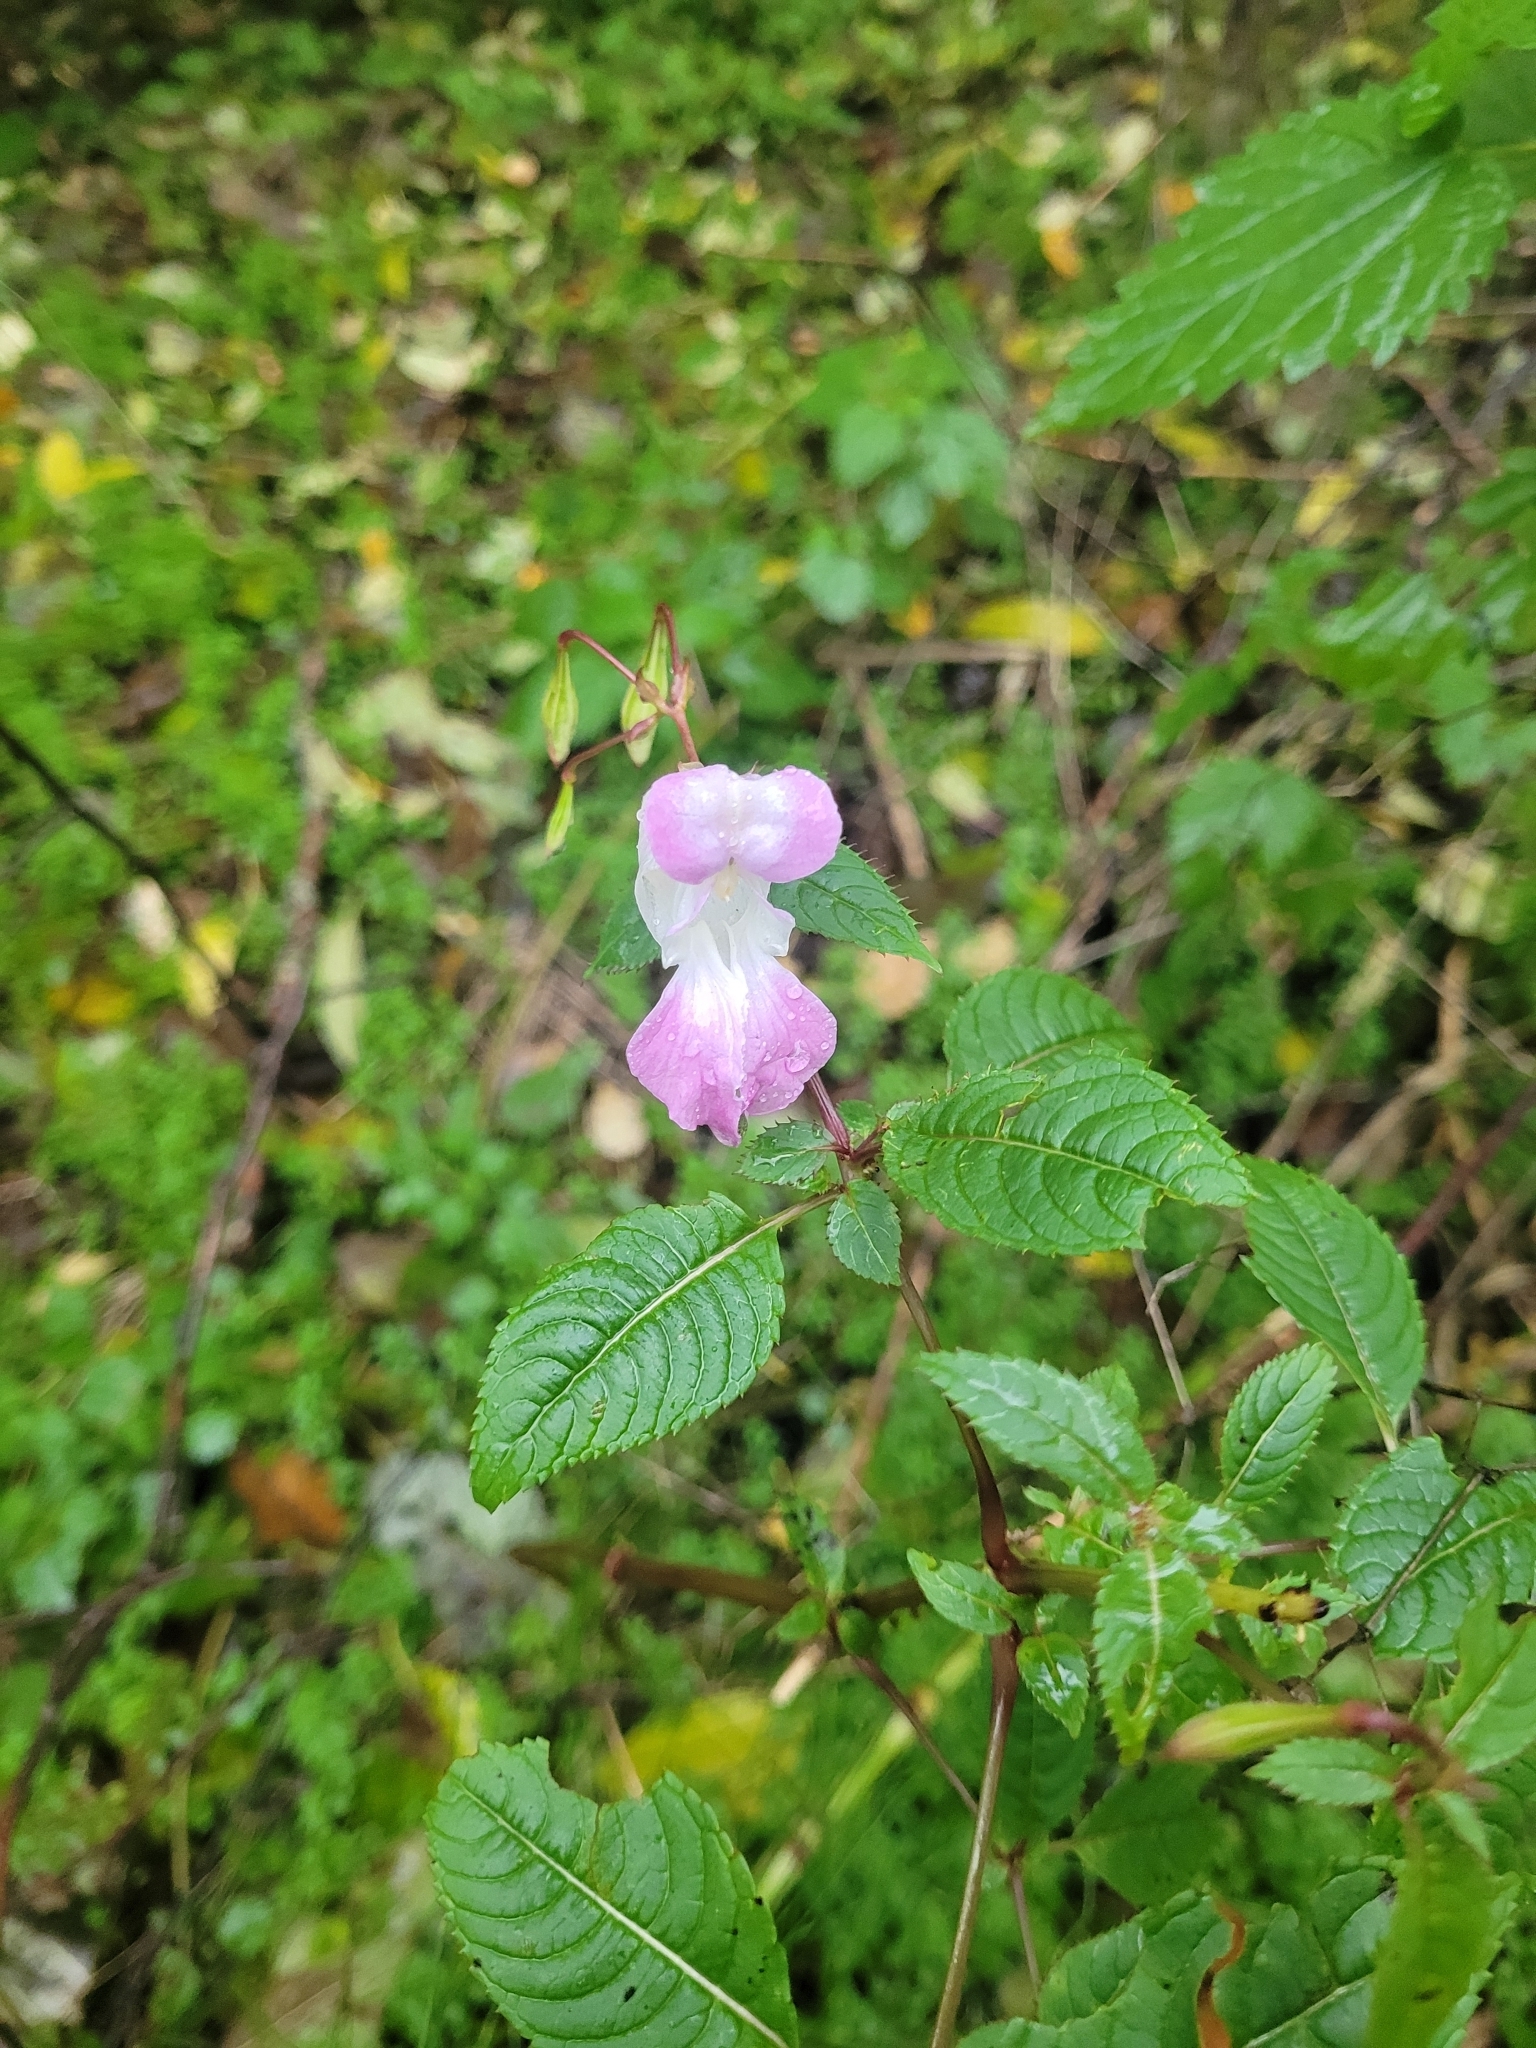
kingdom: Plantae
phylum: Tracheophyta
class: Magnoliopsida
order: Ericales
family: Balsaminaceae
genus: Impatiens
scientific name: Impatiens glandulifera
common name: Himalayan balsam
